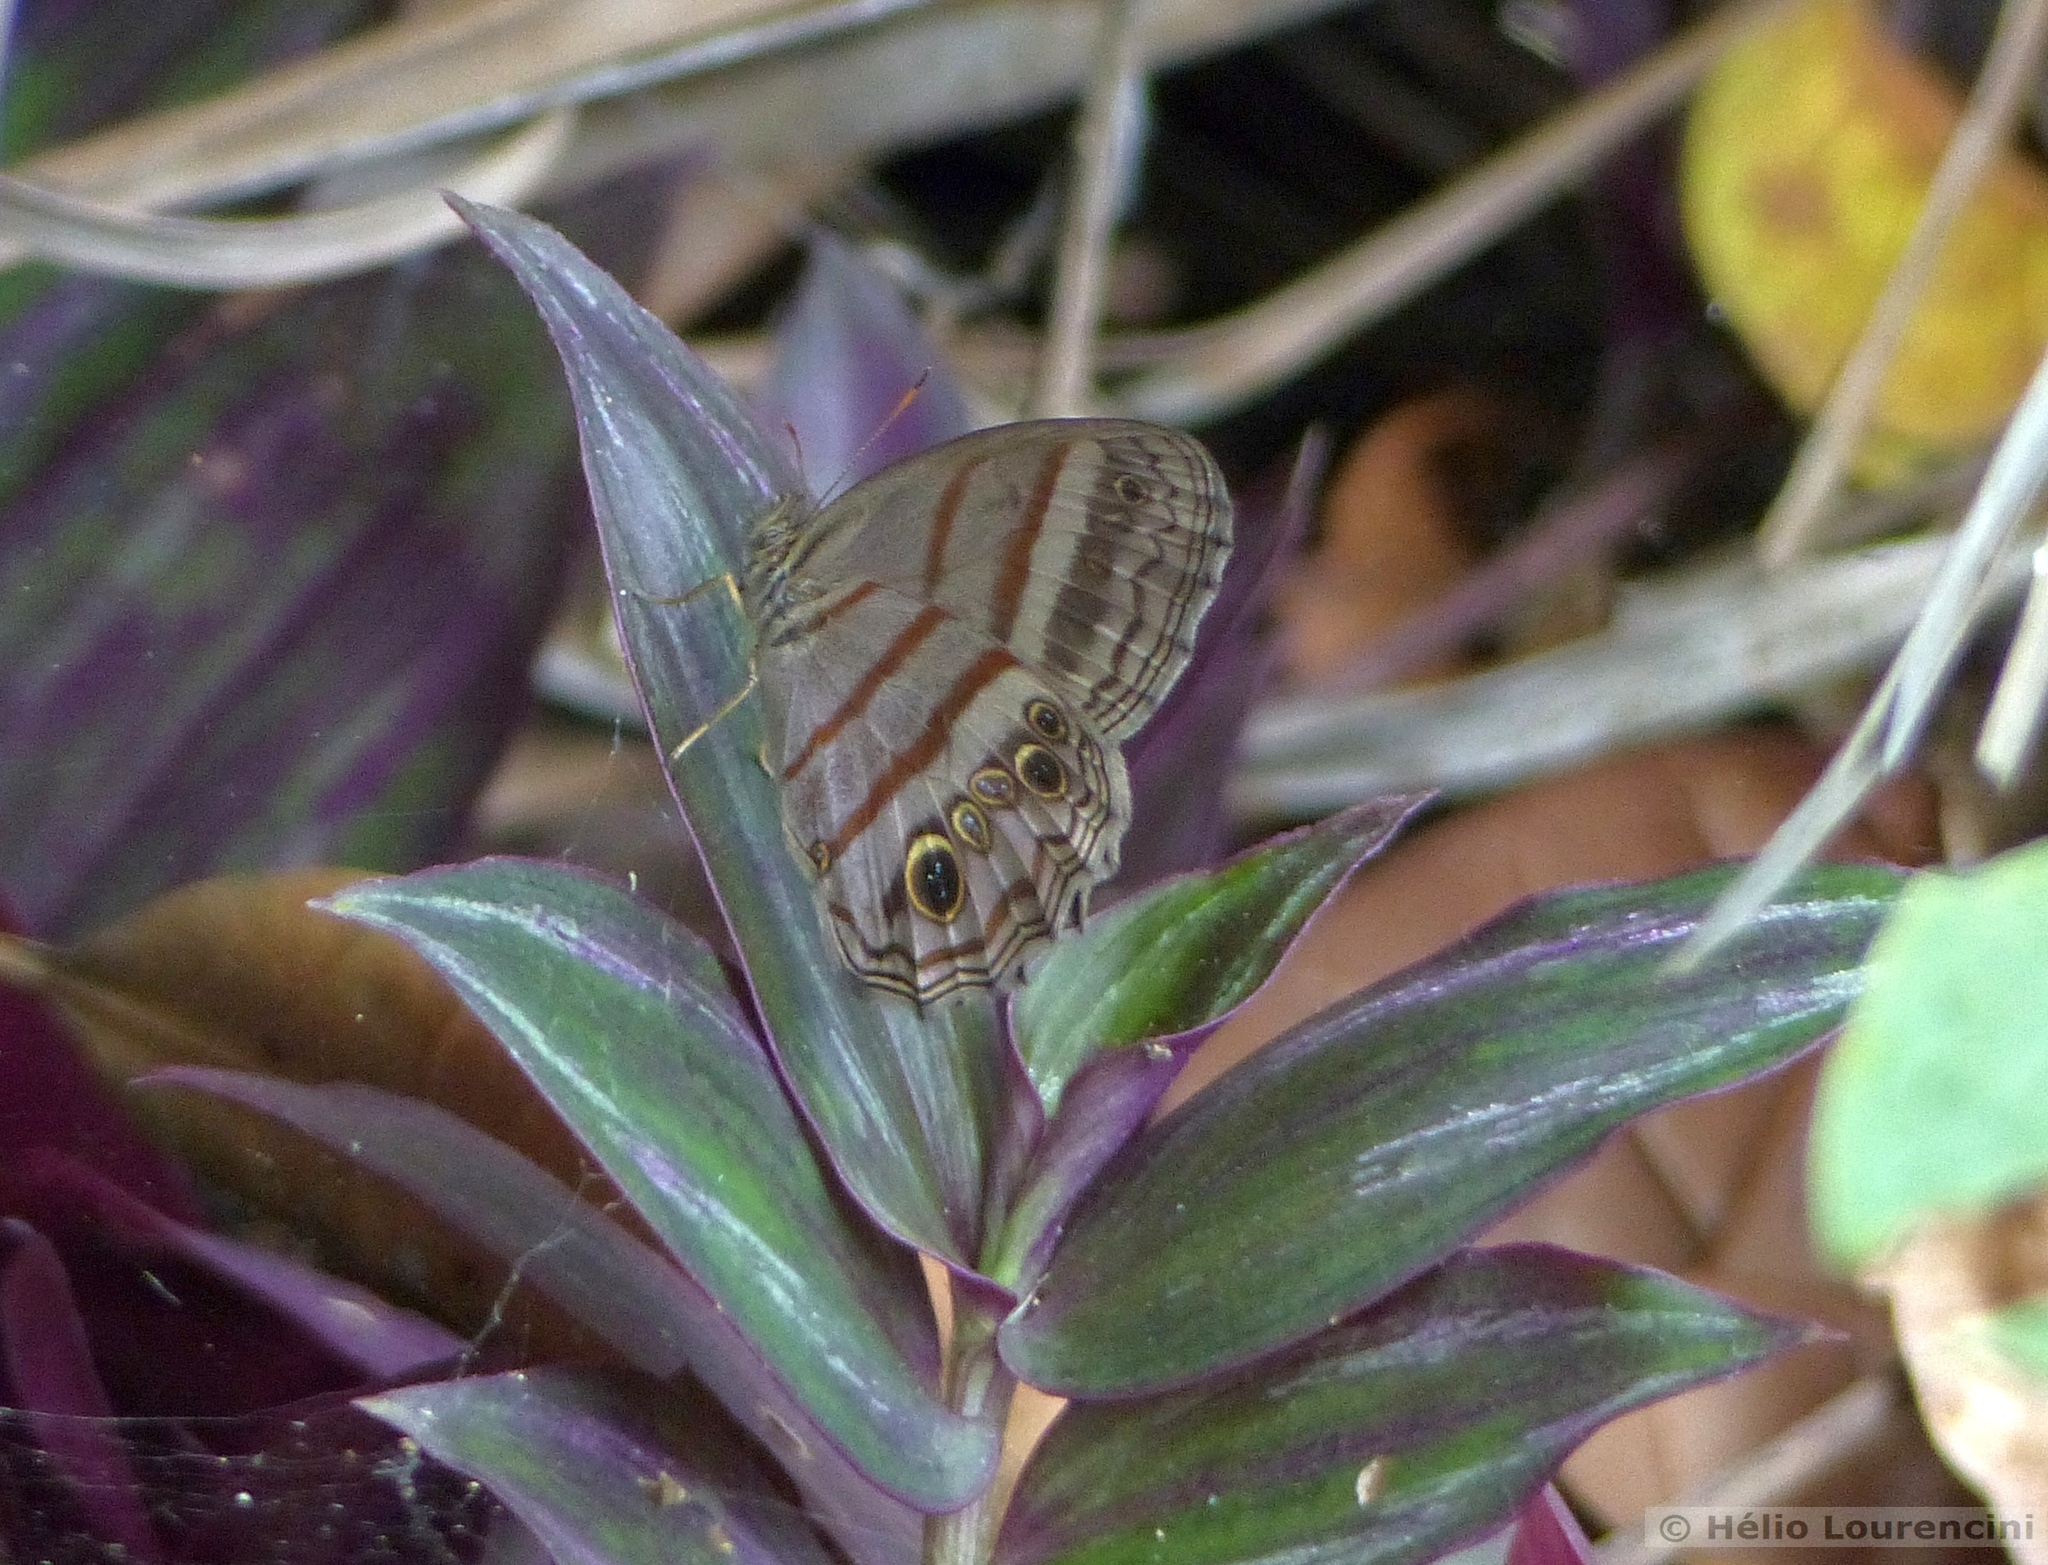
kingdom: Animalia
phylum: Arthropoda
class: Insecta
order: Lepidoptera
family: Nymphalidae
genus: Magneuptychia
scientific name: Magneuptychia libye
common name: Blue-gray satyr
